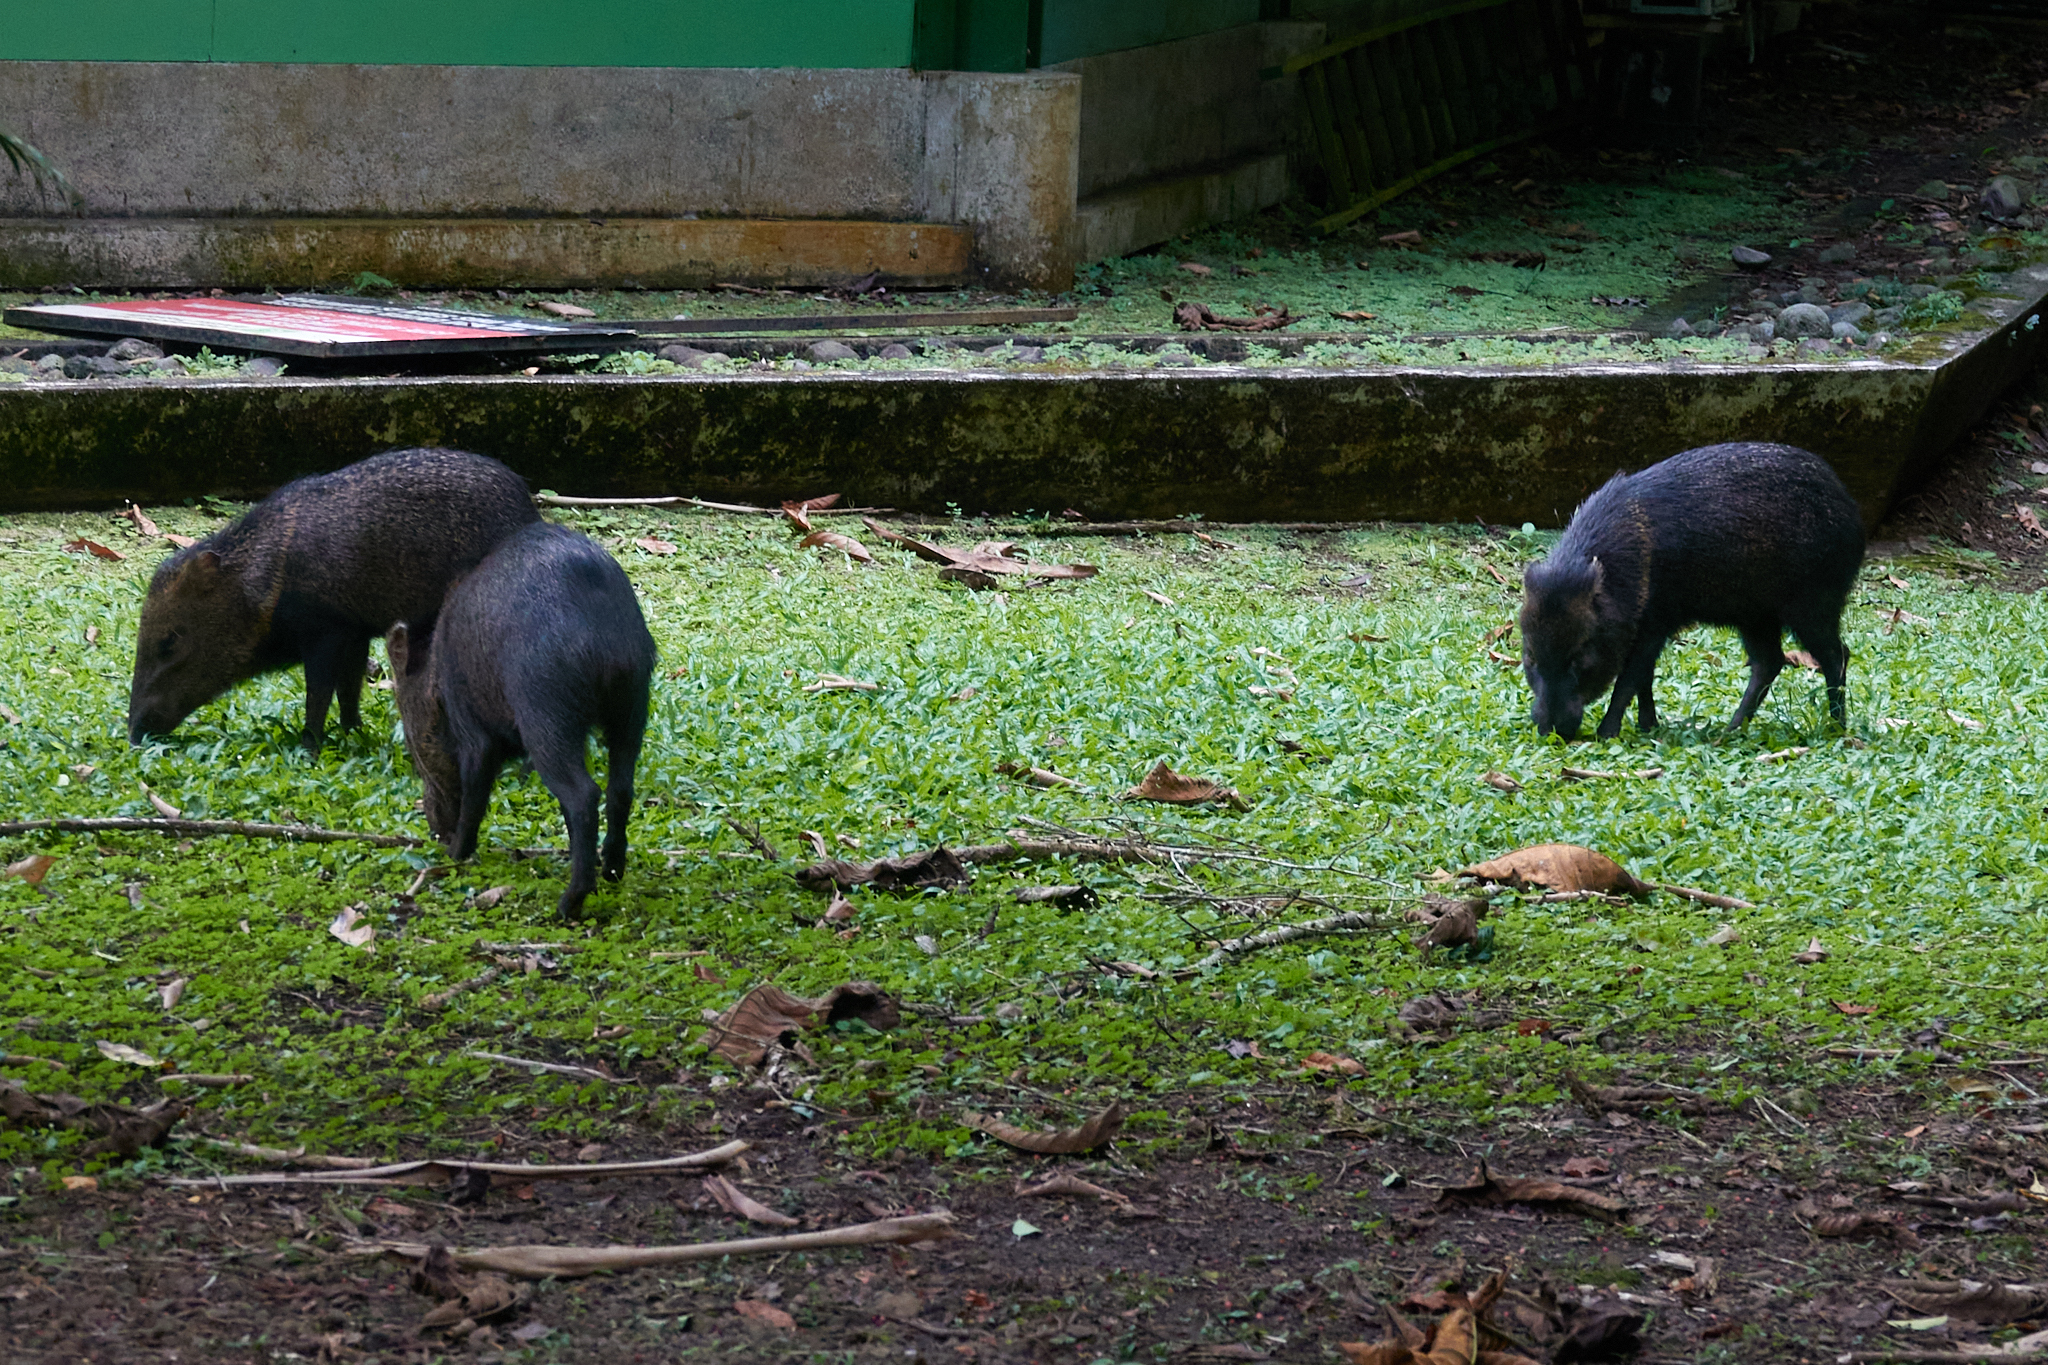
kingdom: Animalia
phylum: Chordata
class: Mammalia
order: Artiodactyla
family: Tayassuidae
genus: Pecari
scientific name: Pecari tajacu
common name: Collared peccary
